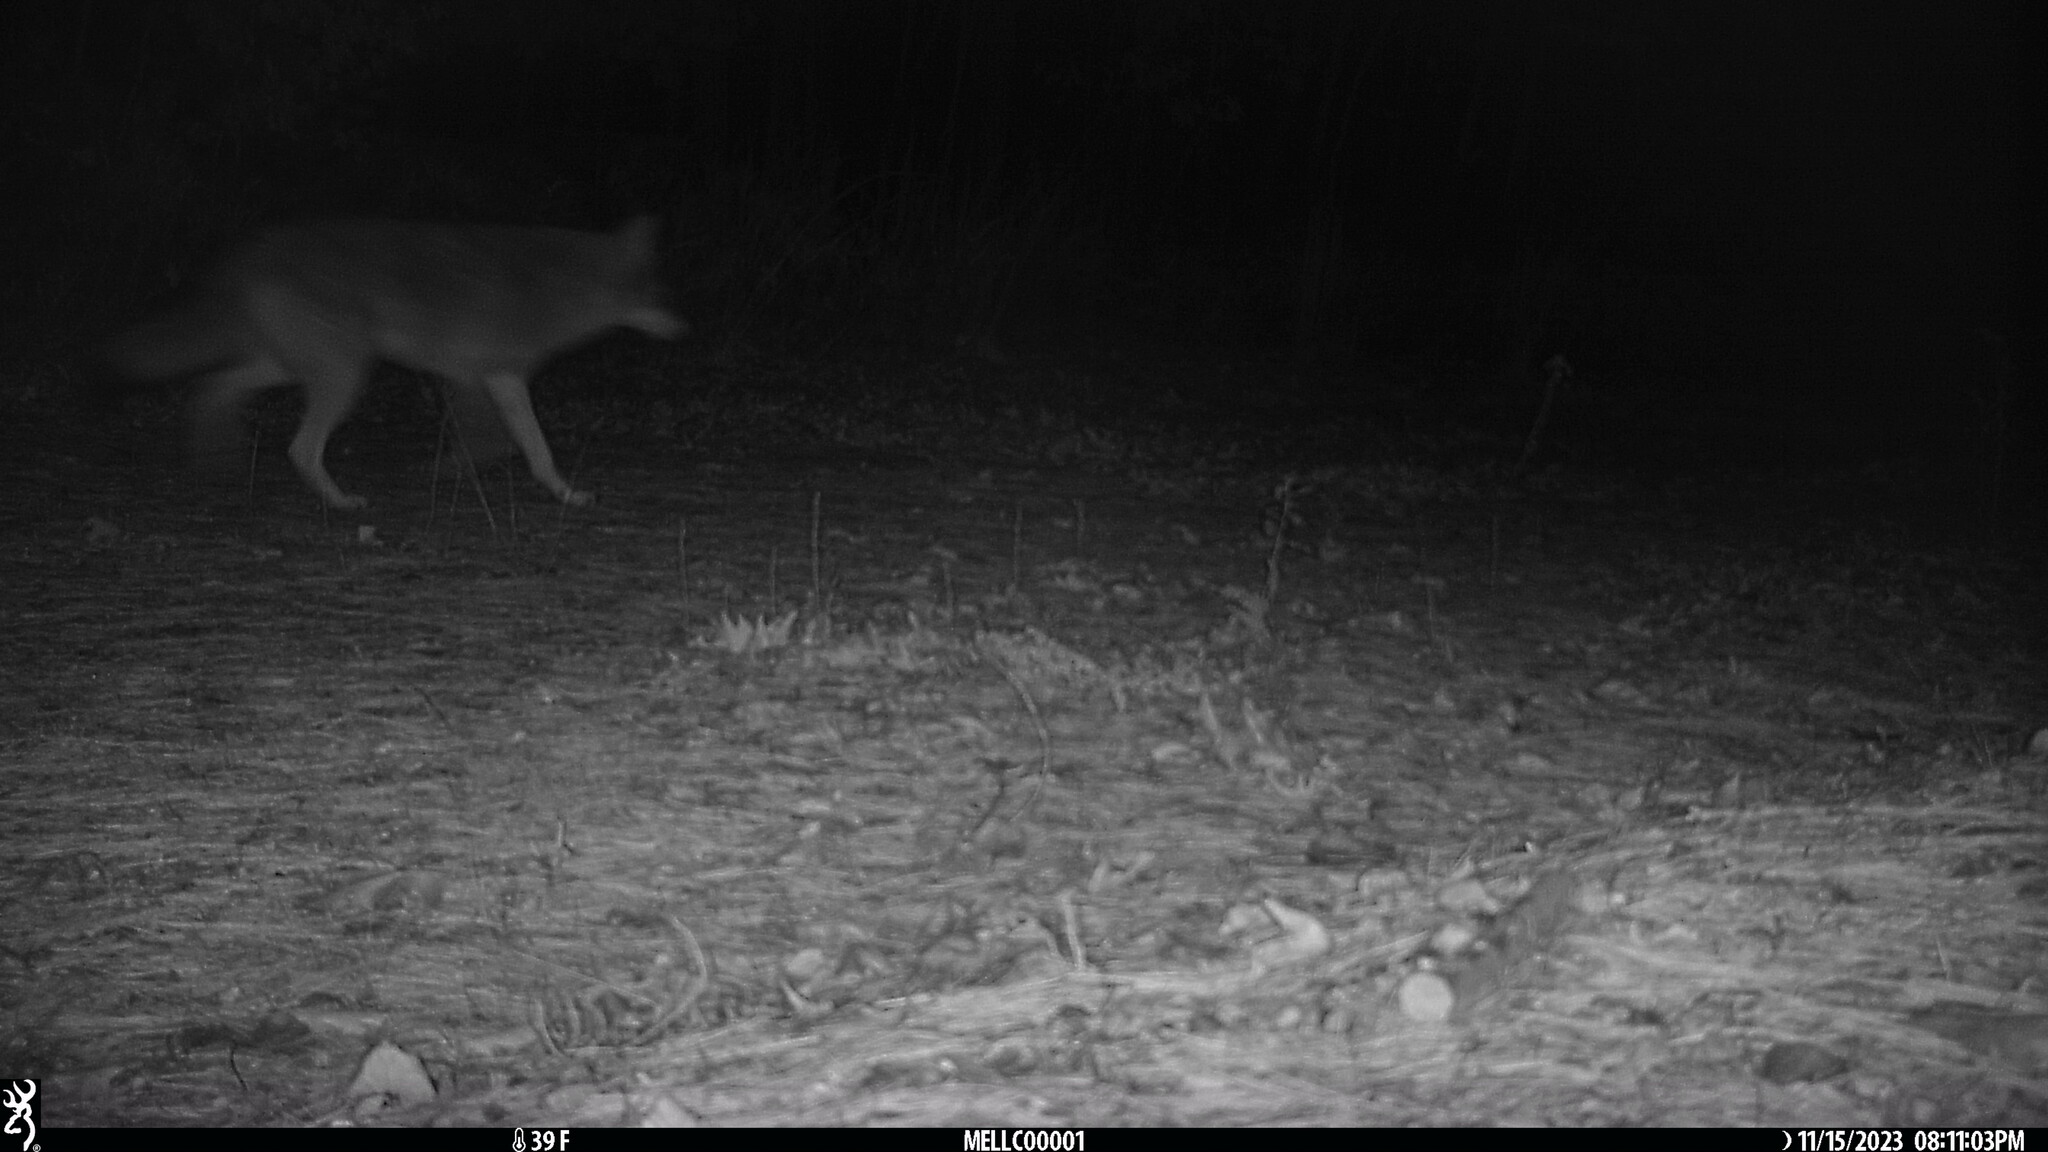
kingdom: Animalia
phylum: Chordata
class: Mammalia
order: Carnivora
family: Canidae
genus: Canis
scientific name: Canis latrans
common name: Coyote
